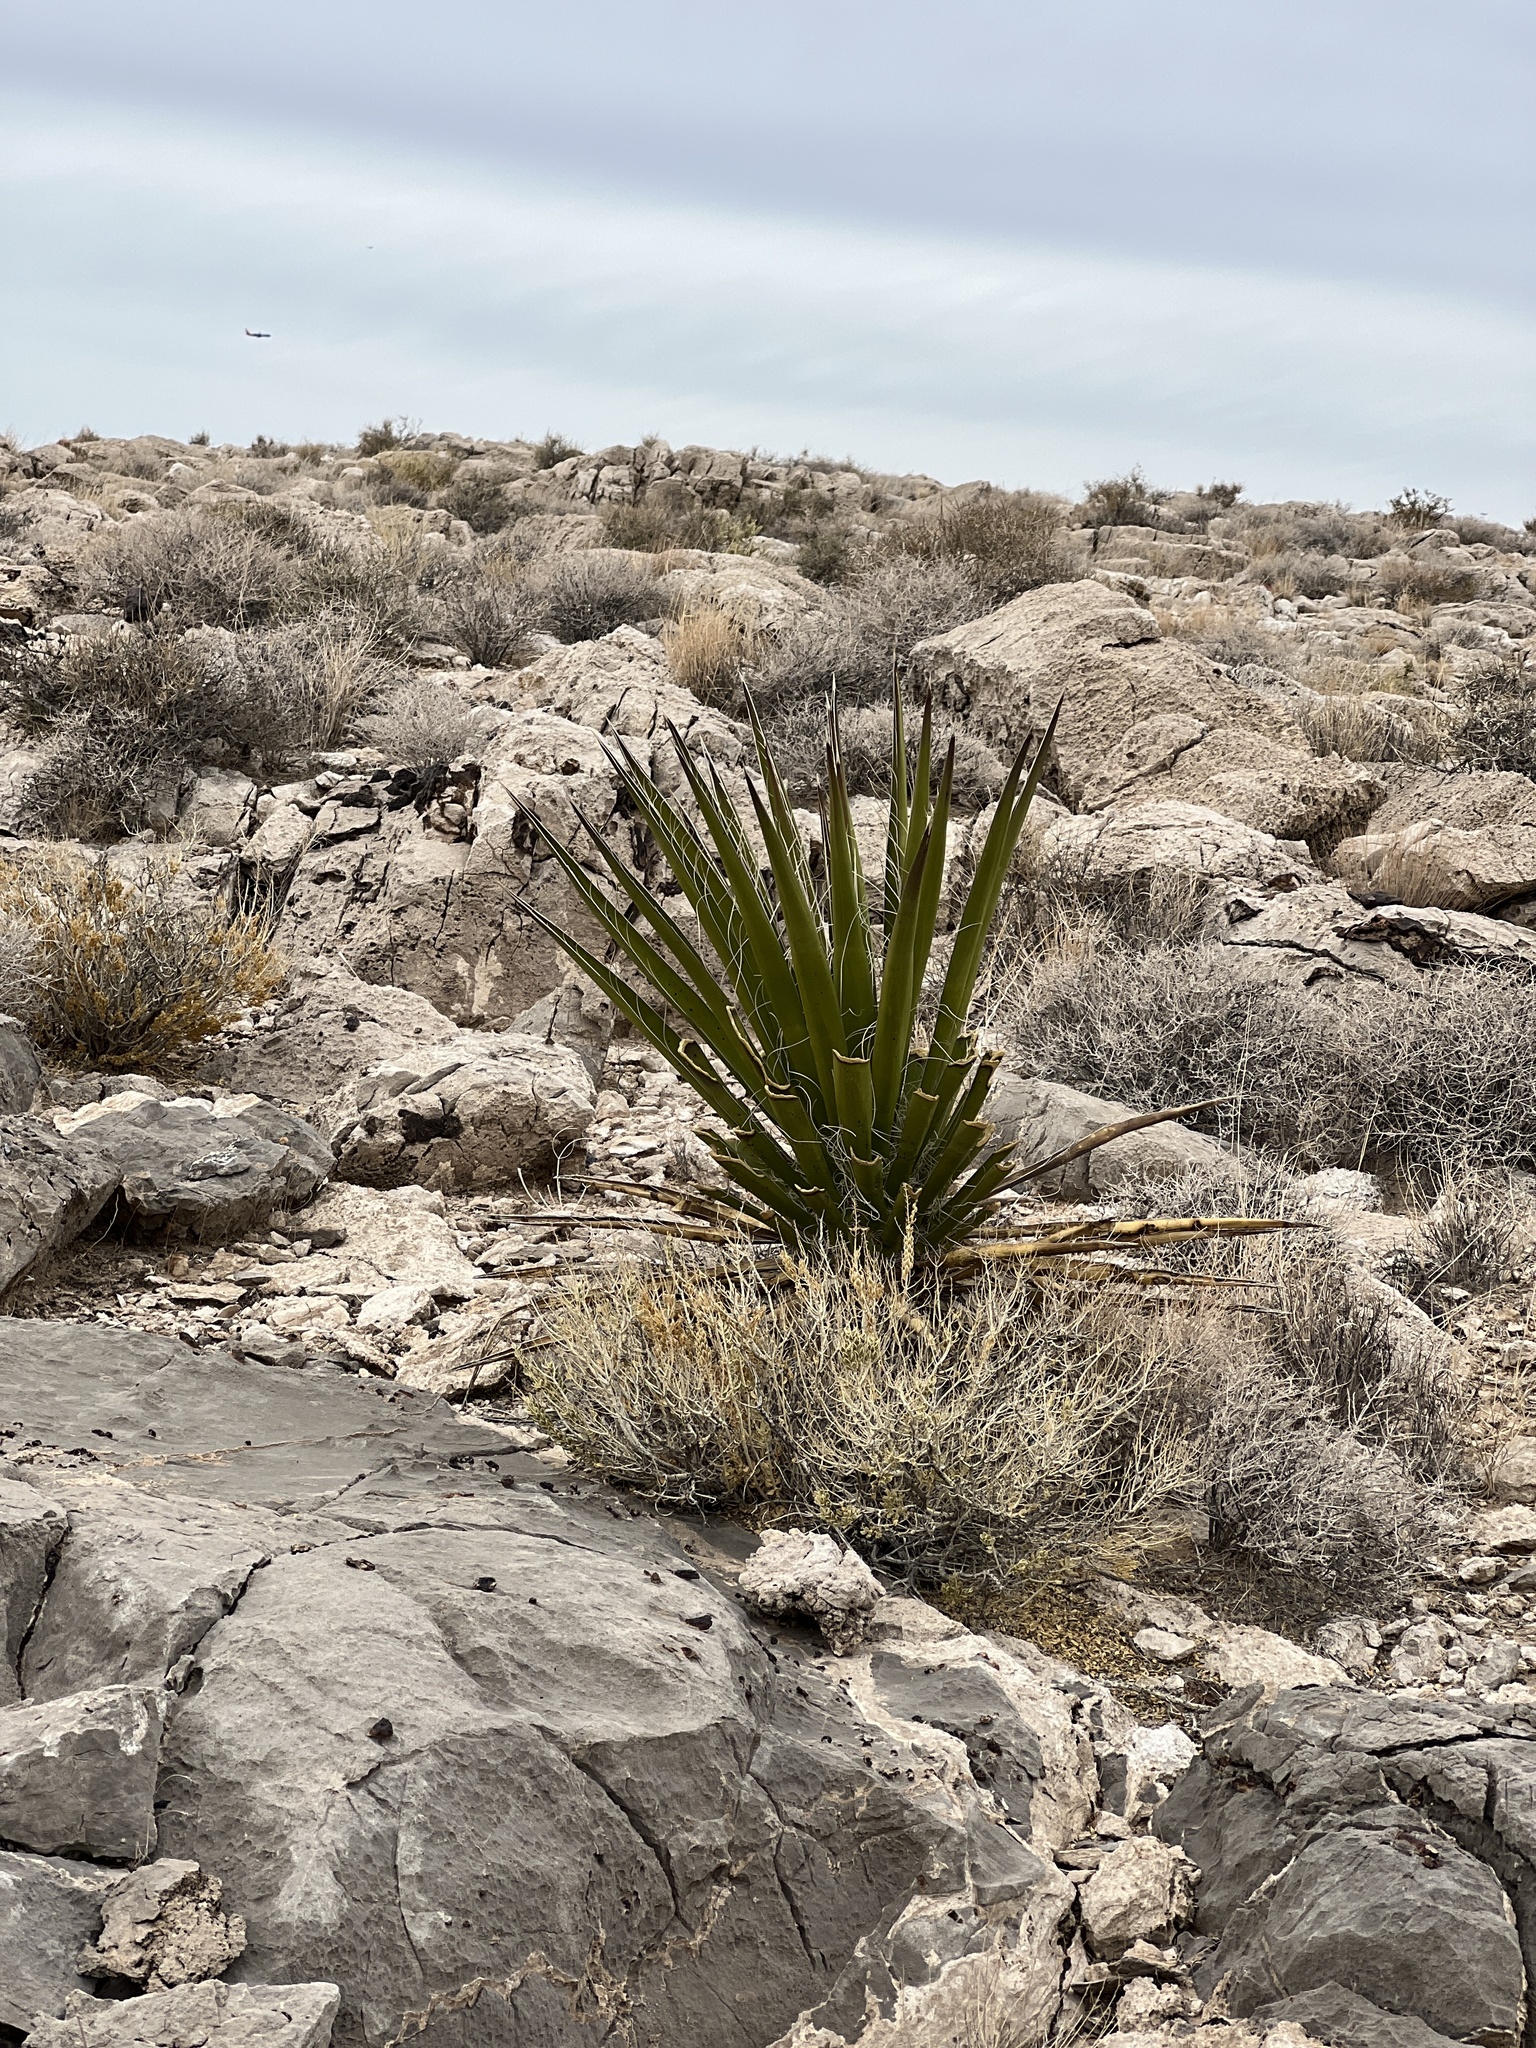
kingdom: Plantae
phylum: Tracheophyta
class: Liliopsida
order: Asparagales
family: Asparagaceae
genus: Yucca
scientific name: Yucca schidigera
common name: Mojave yucca
